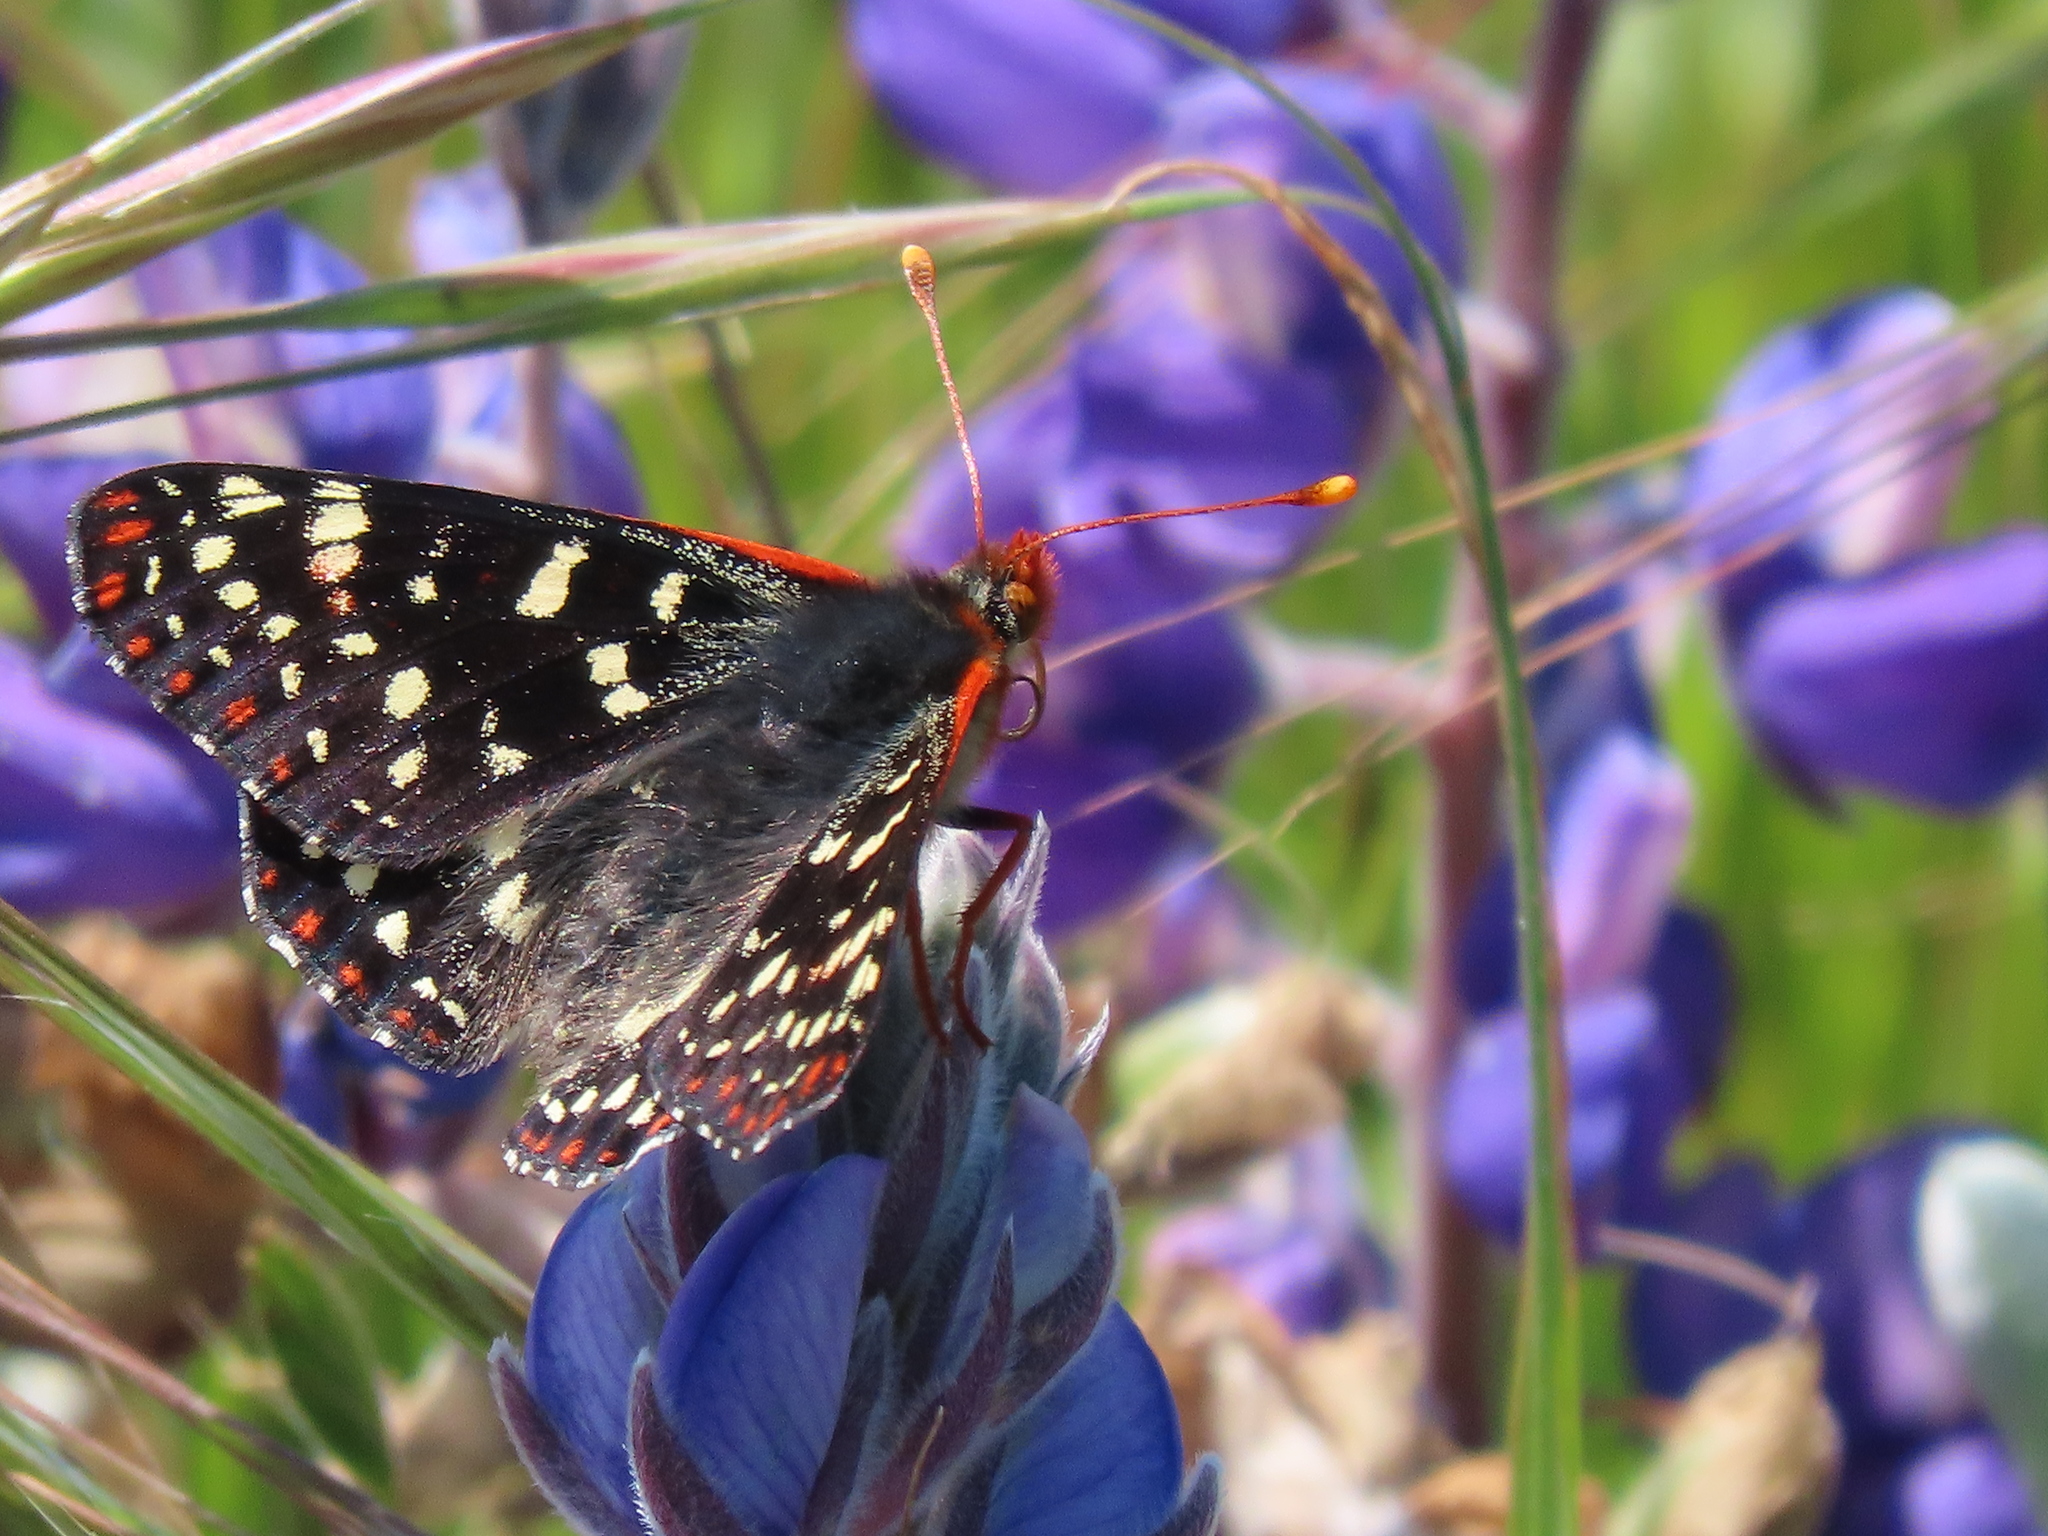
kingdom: Animalia
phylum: Arthropoda
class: Insecta
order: Lepidoptera
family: Nymphalidae
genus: Occidryas
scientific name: Occidryas chalcedona
